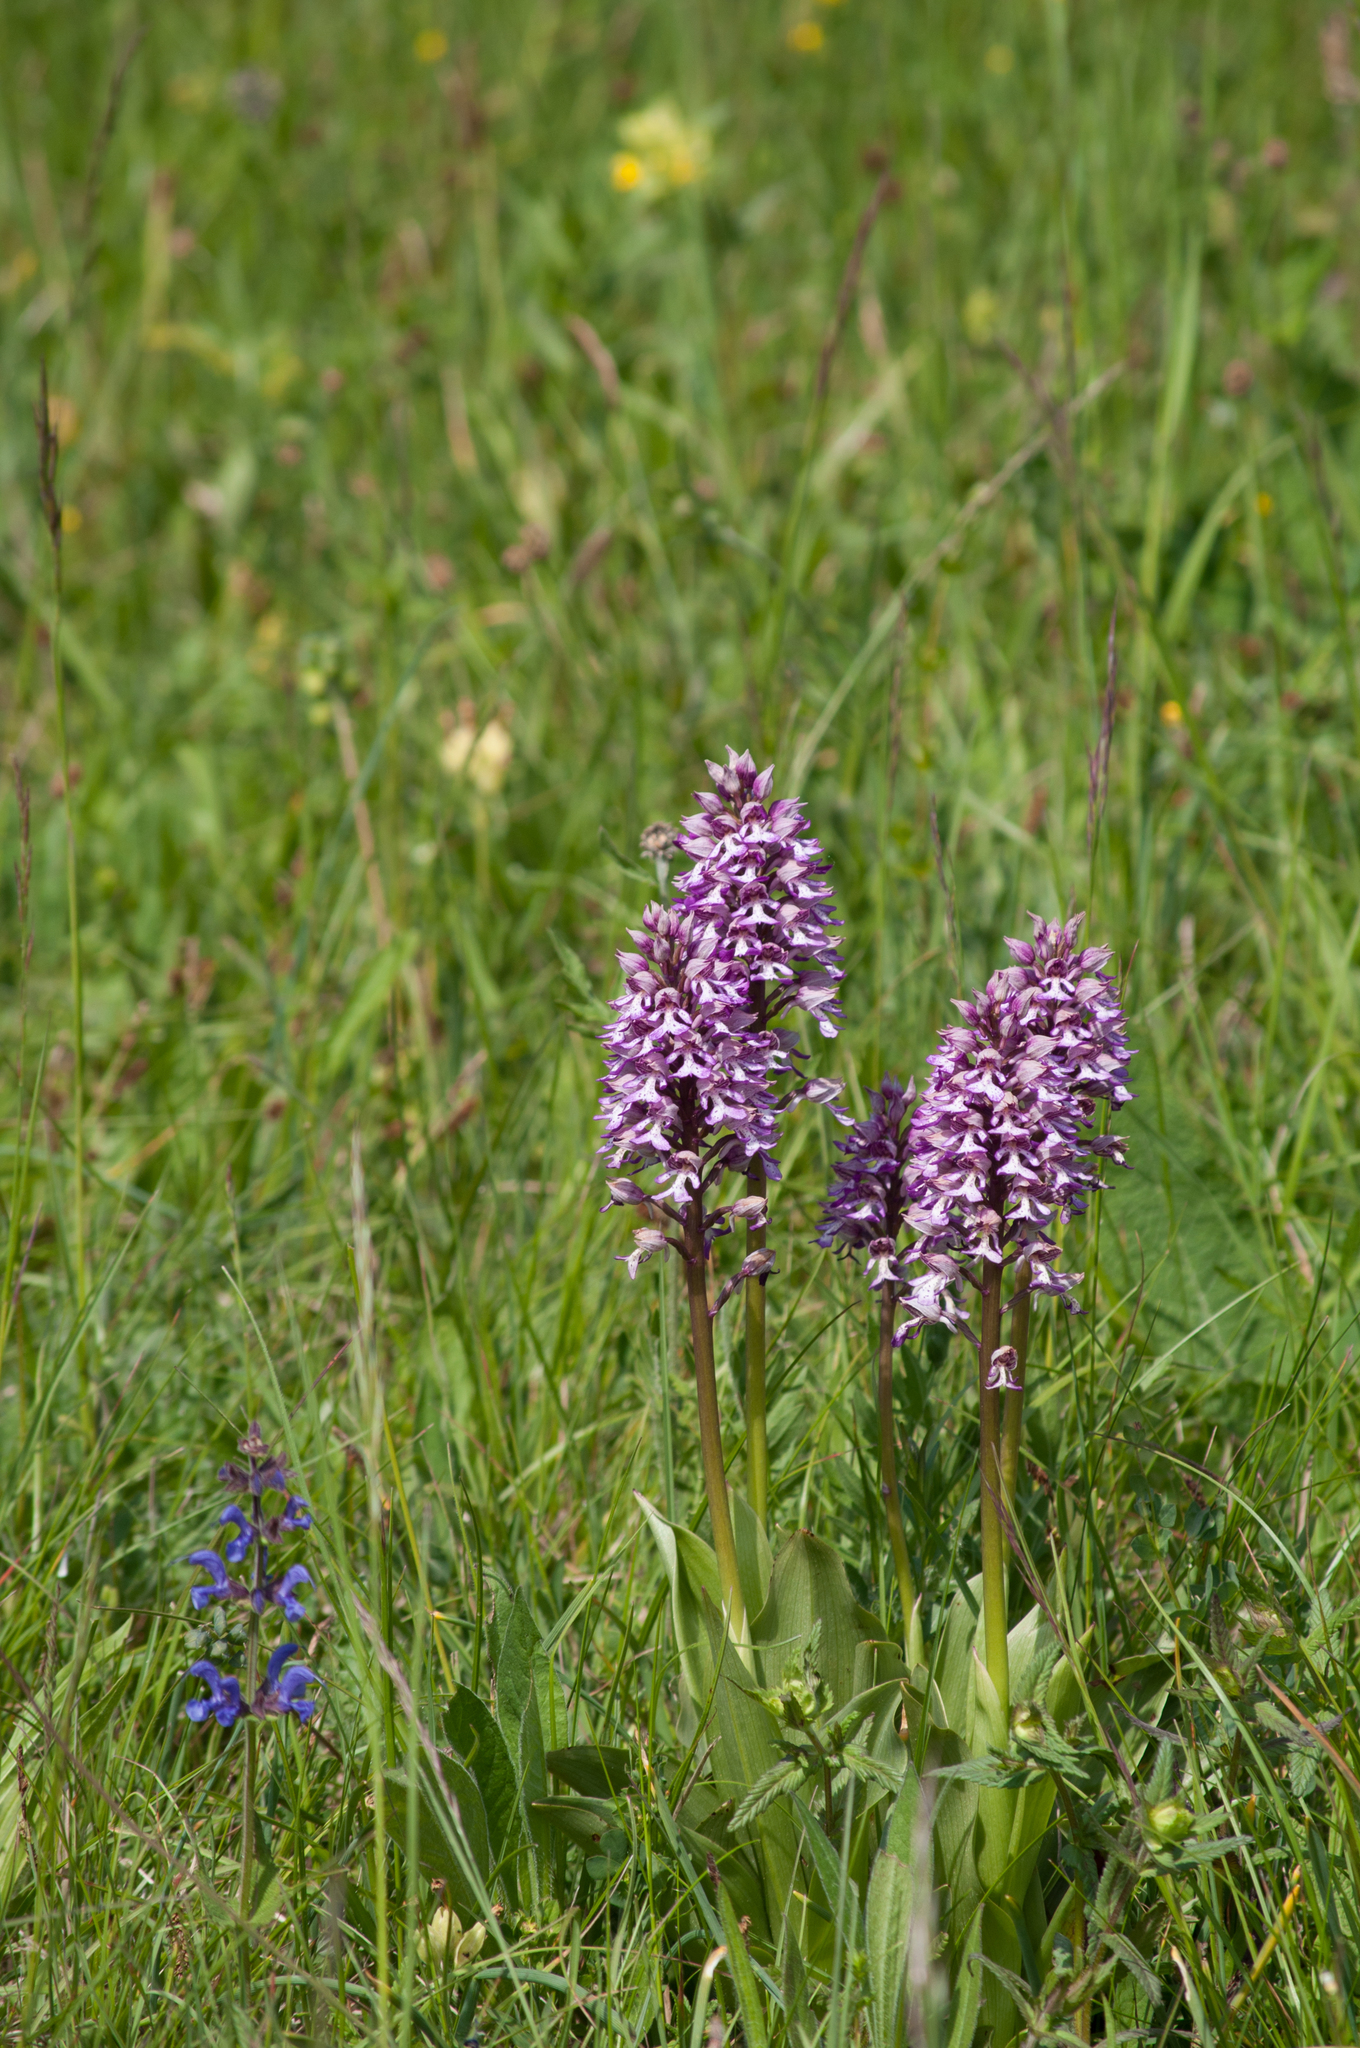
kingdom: Plantae
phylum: Tracheophyta
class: Liliopsida
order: Asparagales
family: Orchidaceae
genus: Orchis
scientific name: Orchis militaris
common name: Military orchid
